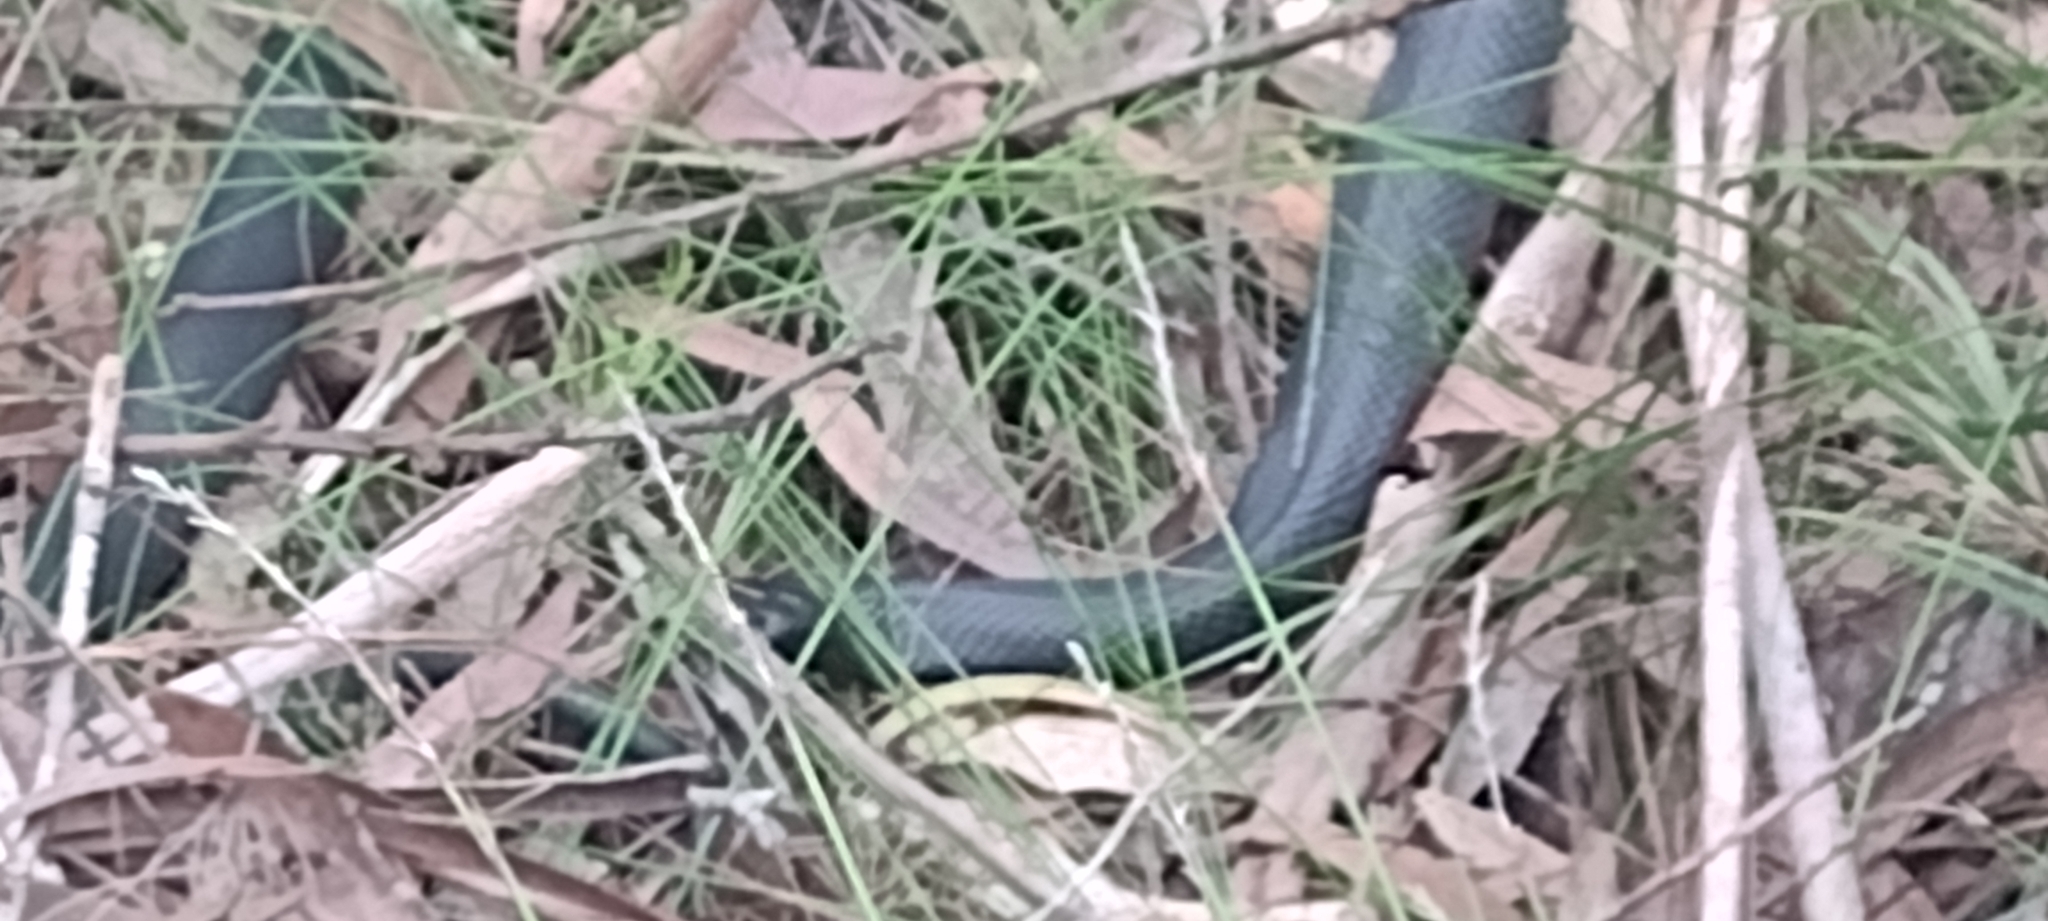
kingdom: Animalia
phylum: Chordata
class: Squamata
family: Elapidae
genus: Pseudechis
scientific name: Pseudechis porphyriacus
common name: Australian black snake
